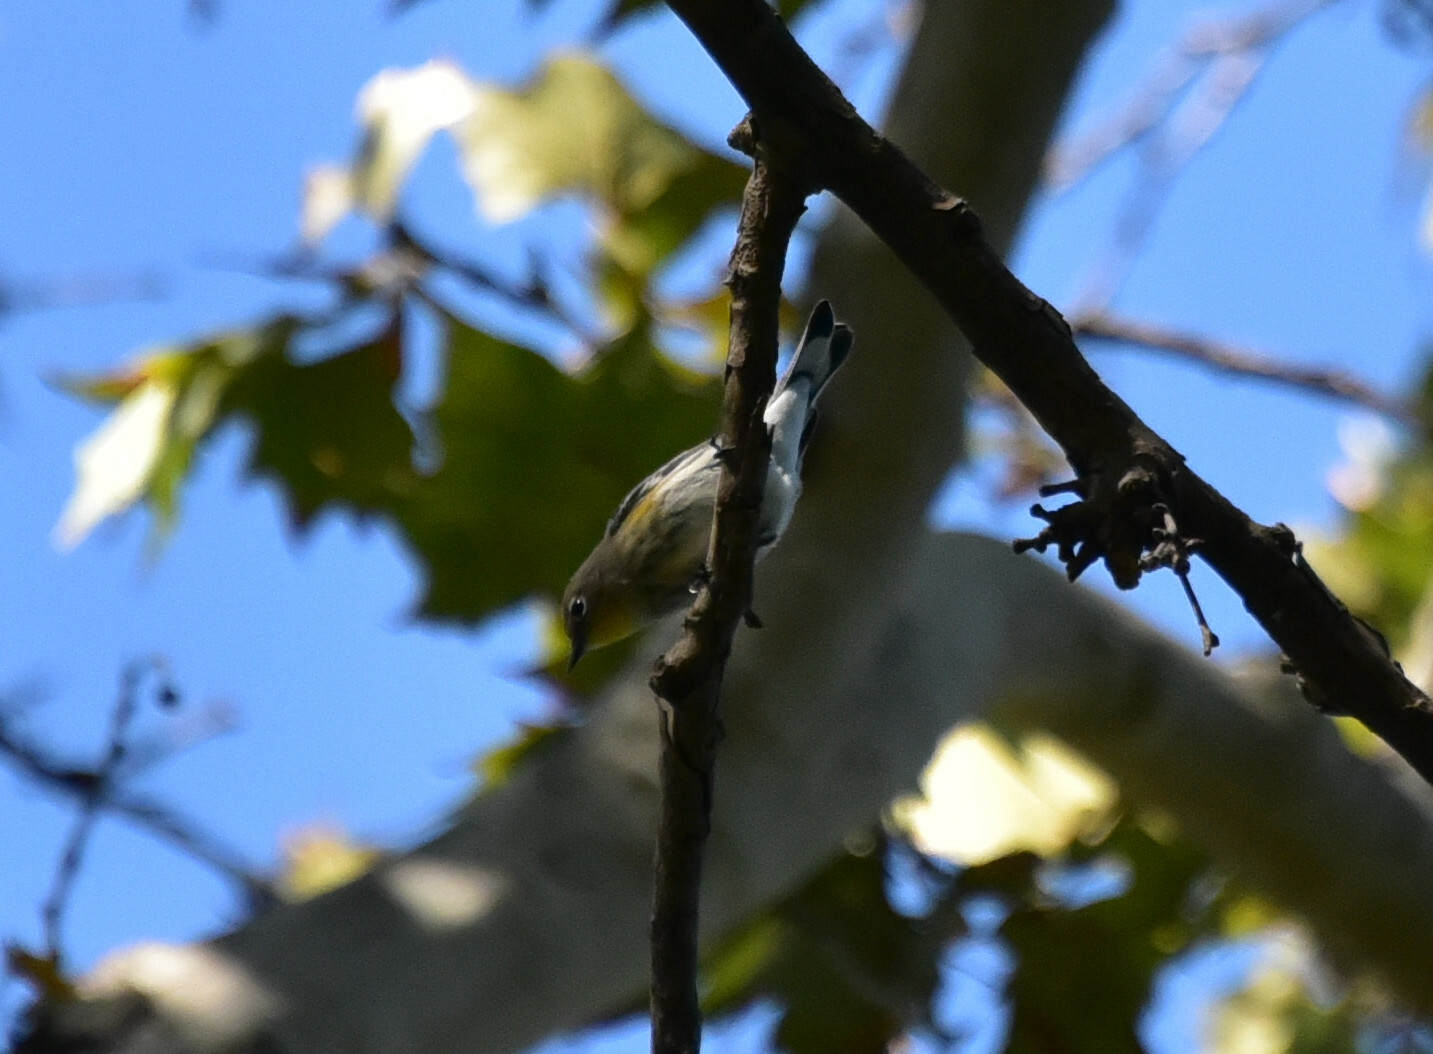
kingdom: Animalia
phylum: Chordata
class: Aves
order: Passeriformes
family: Parulidae
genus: Setophaga
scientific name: Setophaga coronata
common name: Myrtle warbler
